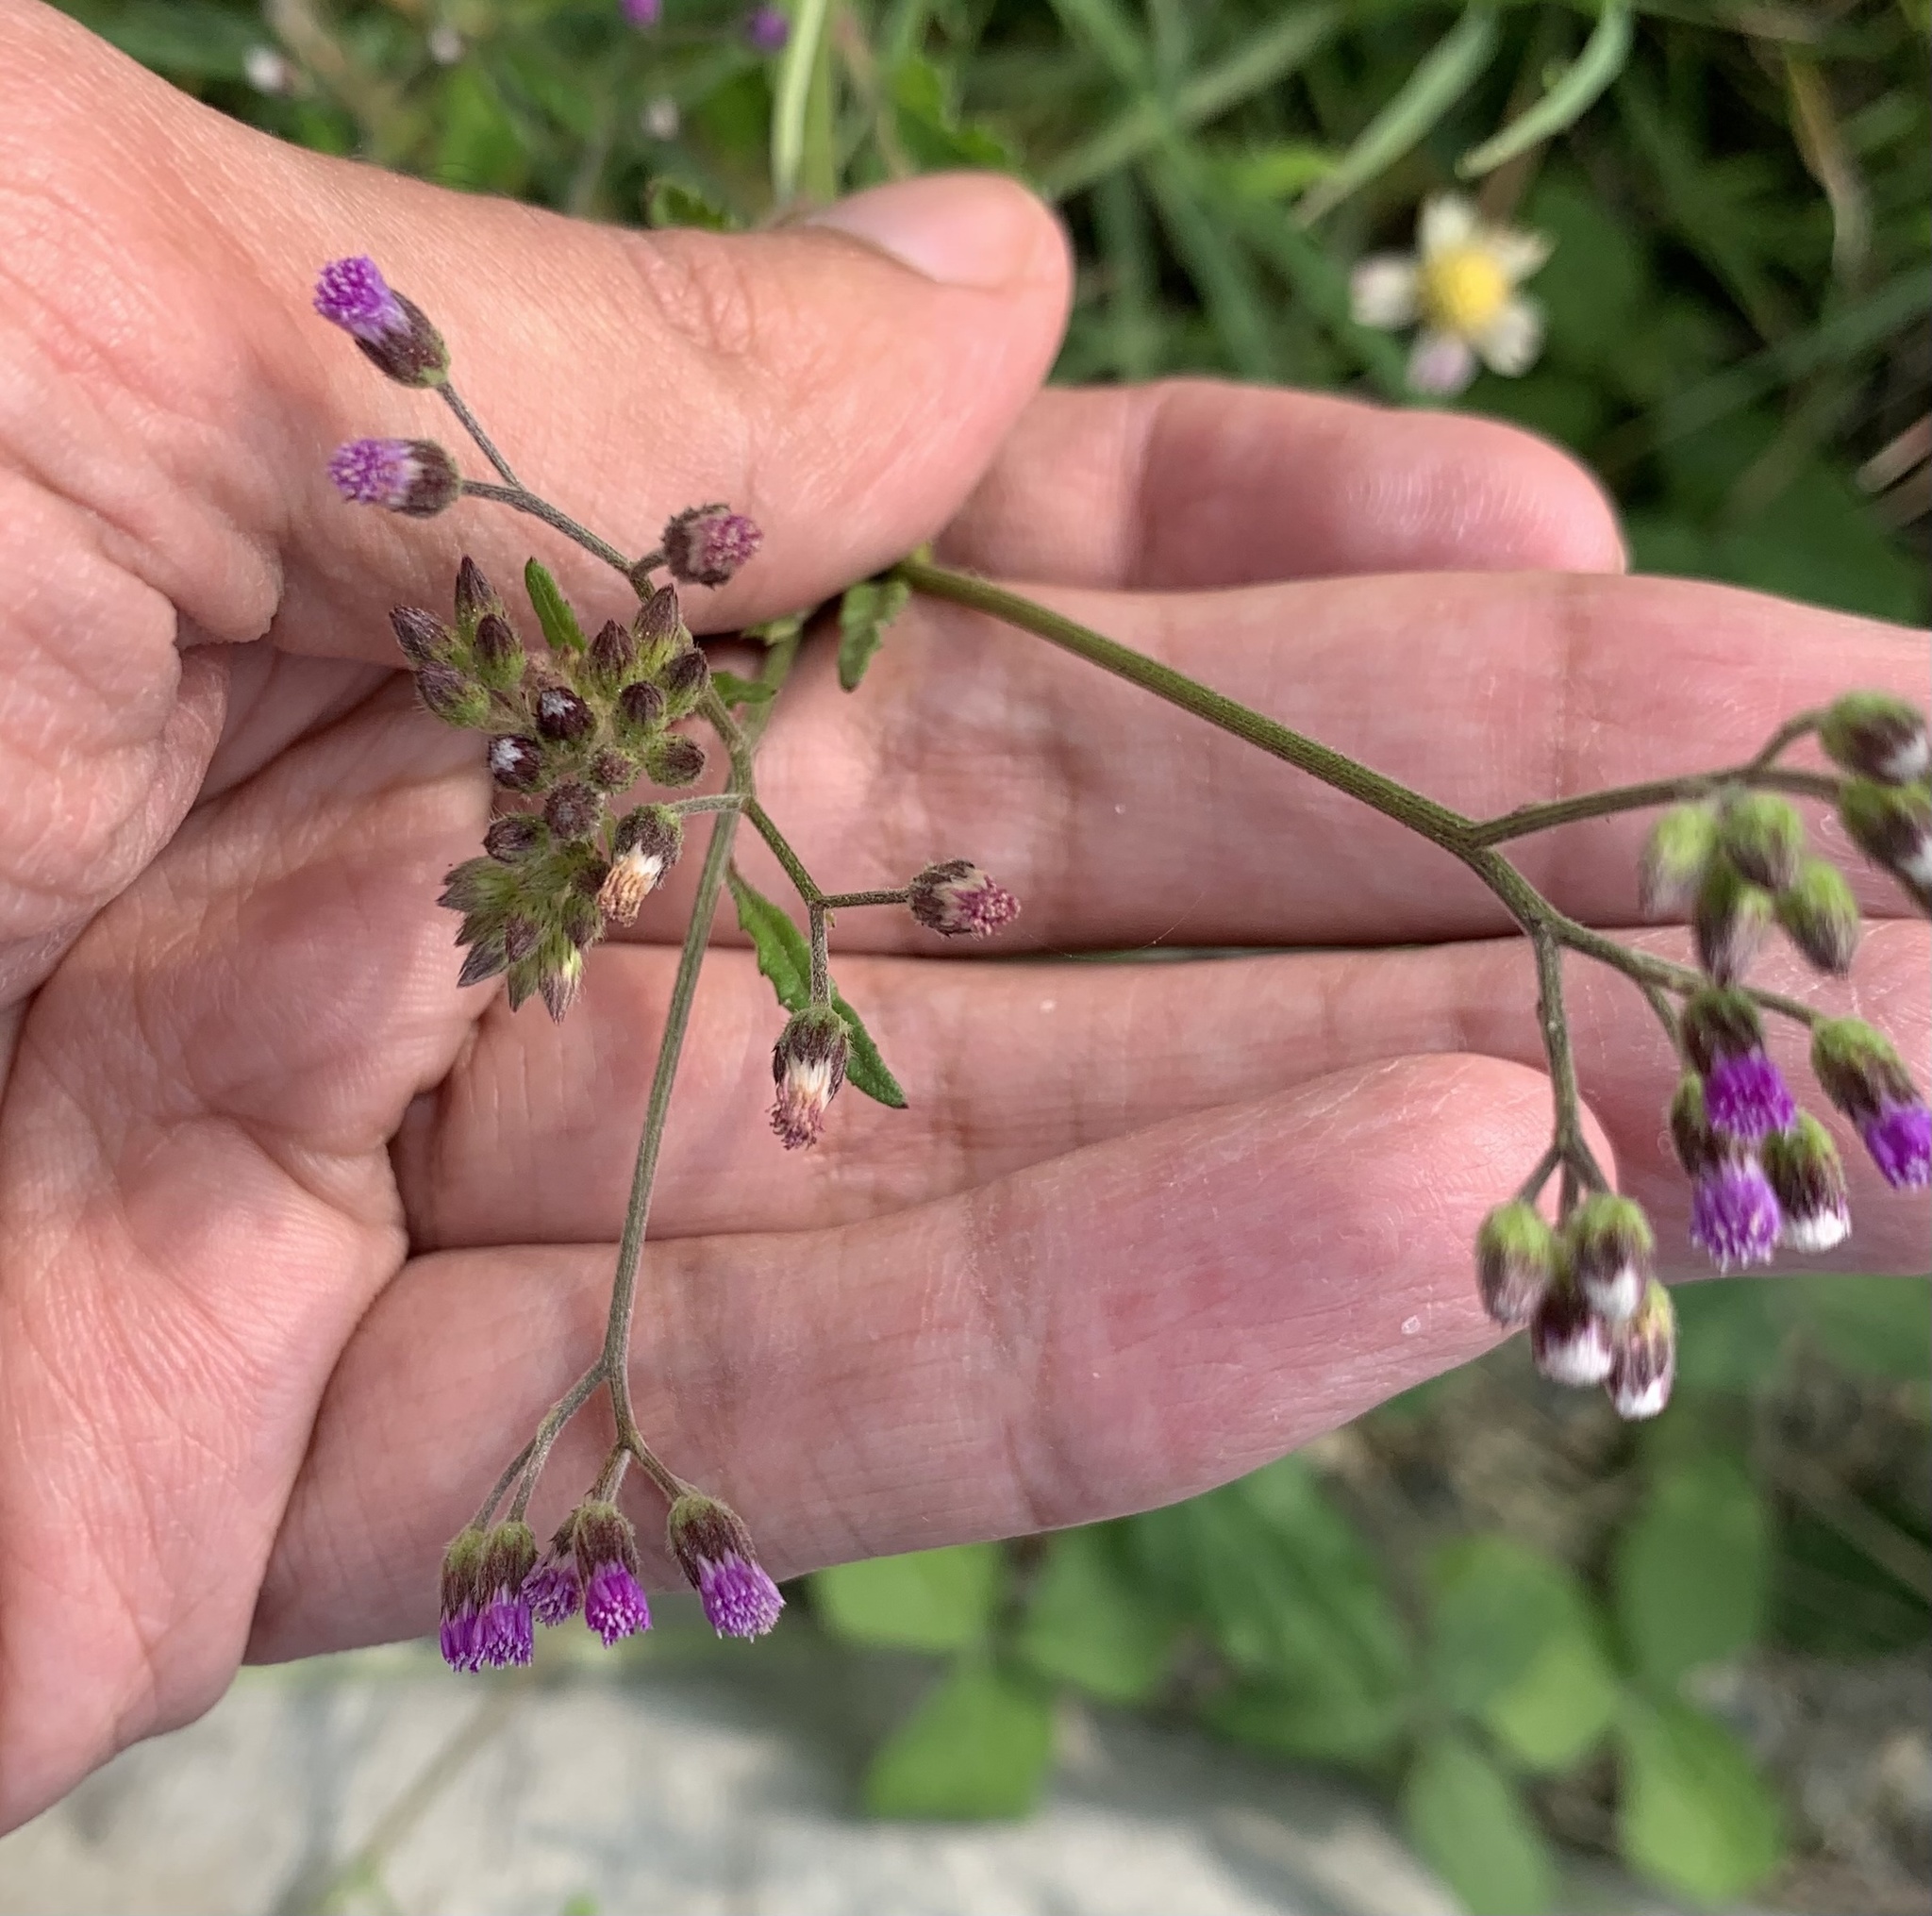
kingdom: Plantae
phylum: Tracheophyta
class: Magnoliopsida
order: Asterales
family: Asteraceae
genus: Cyanthillium
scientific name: Cyanthillium cinereum
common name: Little ironweed
